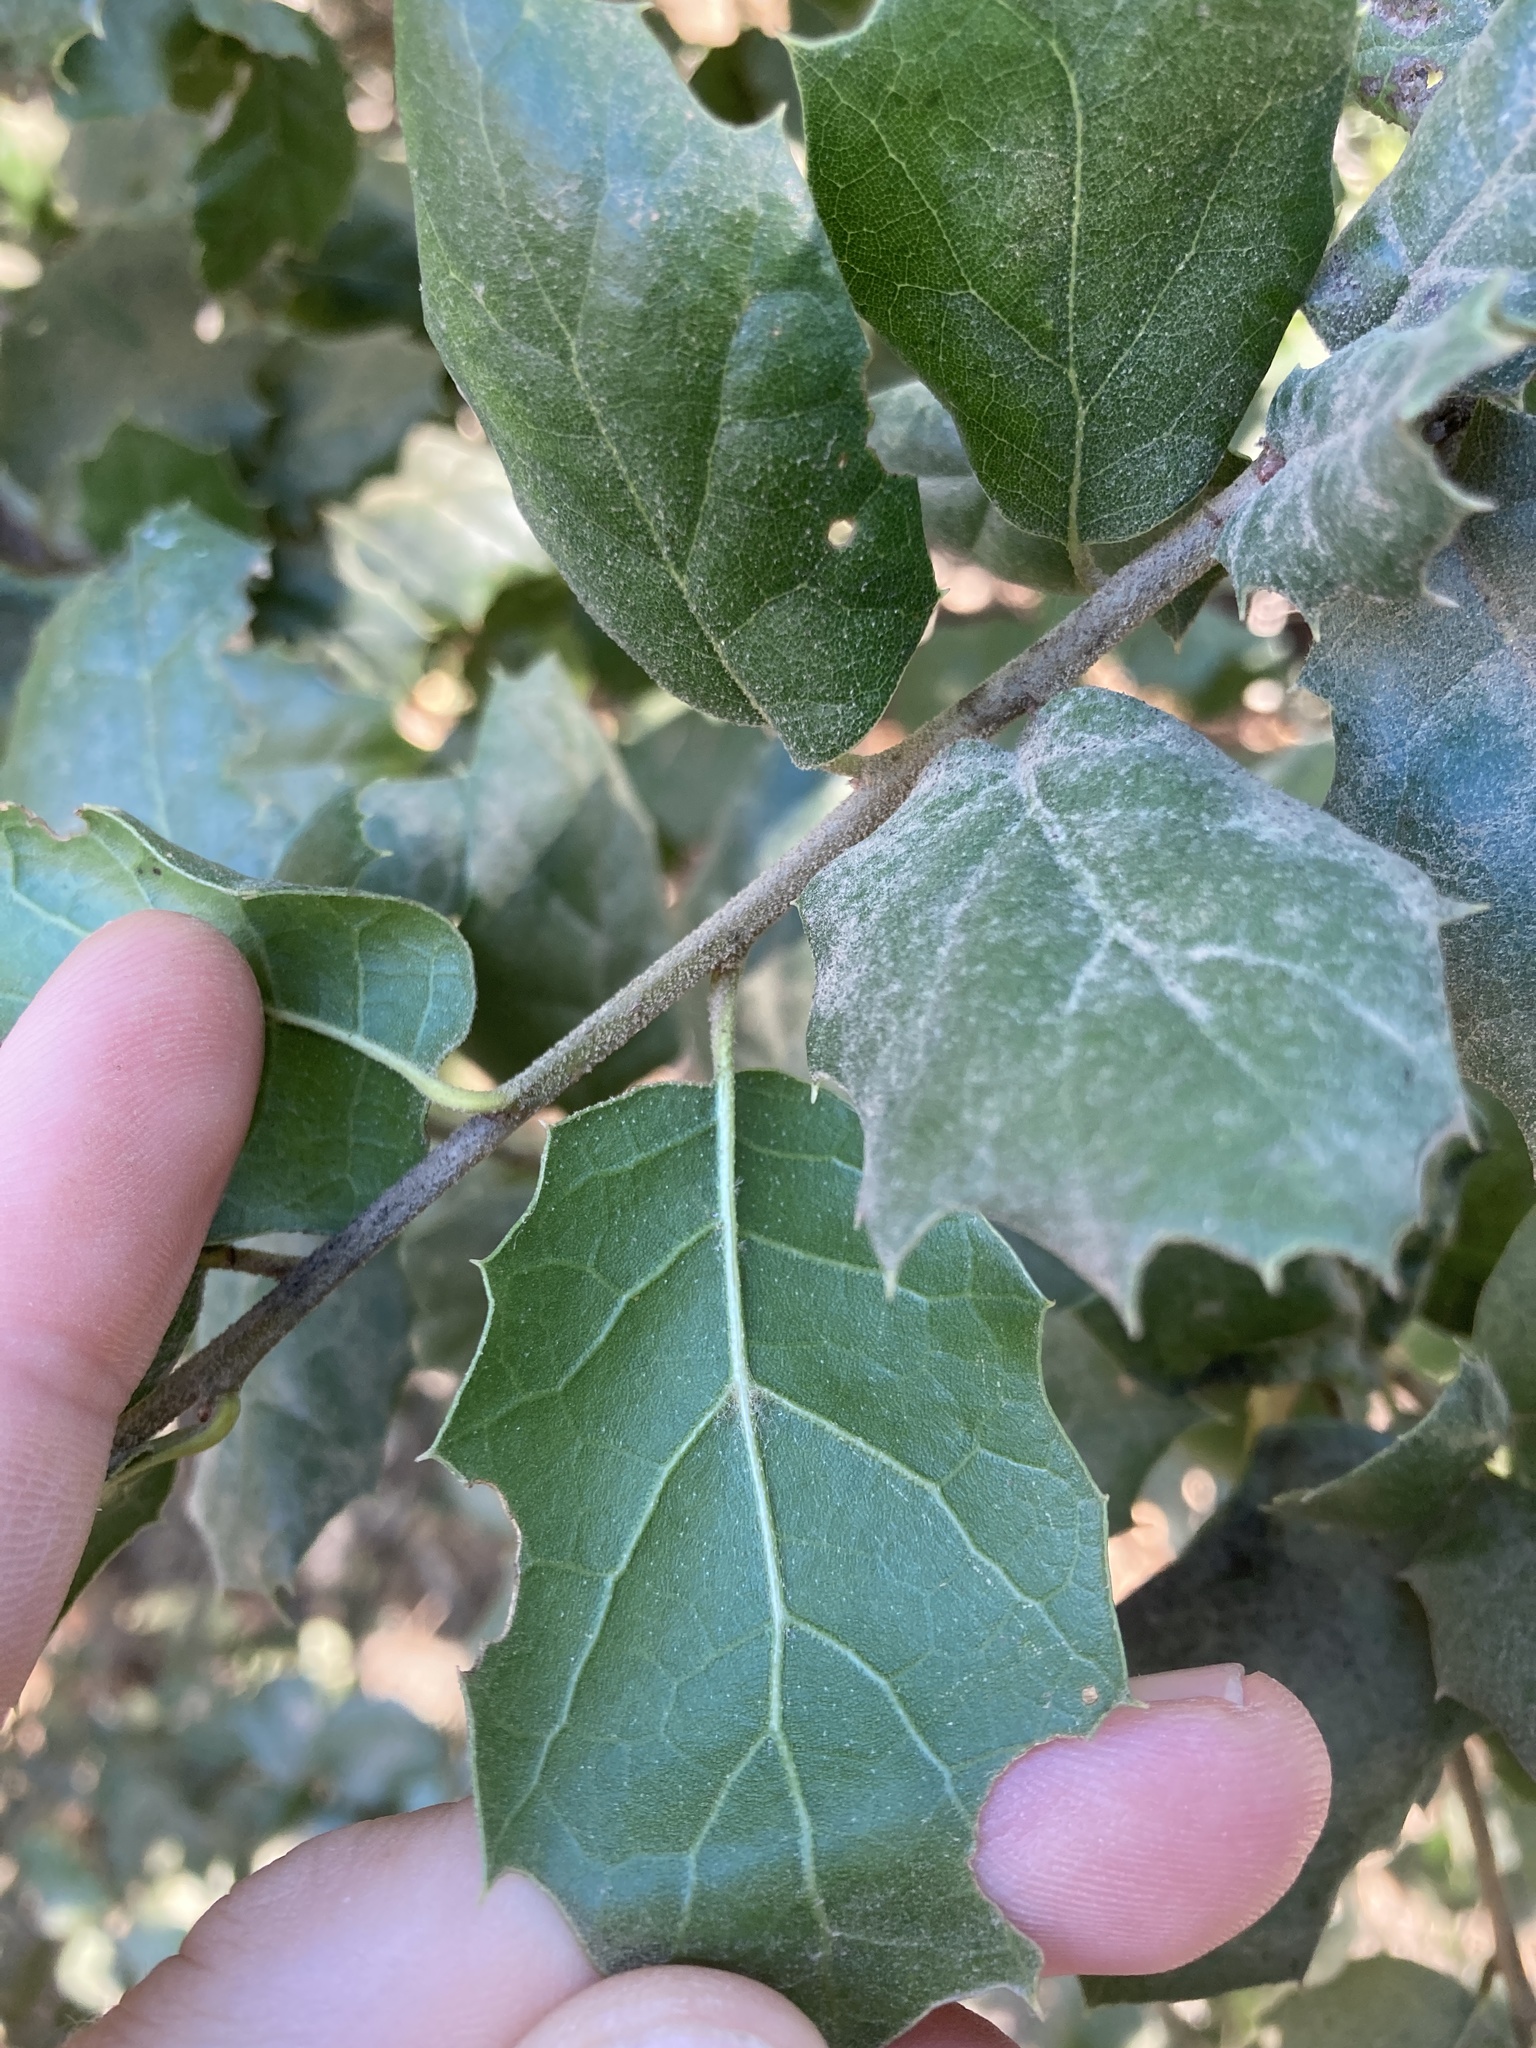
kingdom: Plantae
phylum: Tracheophyta
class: Magnoliopsida
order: Fagales
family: Fagaceae
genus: Quercus
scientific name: Quercus agrifolia
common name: California live oak
